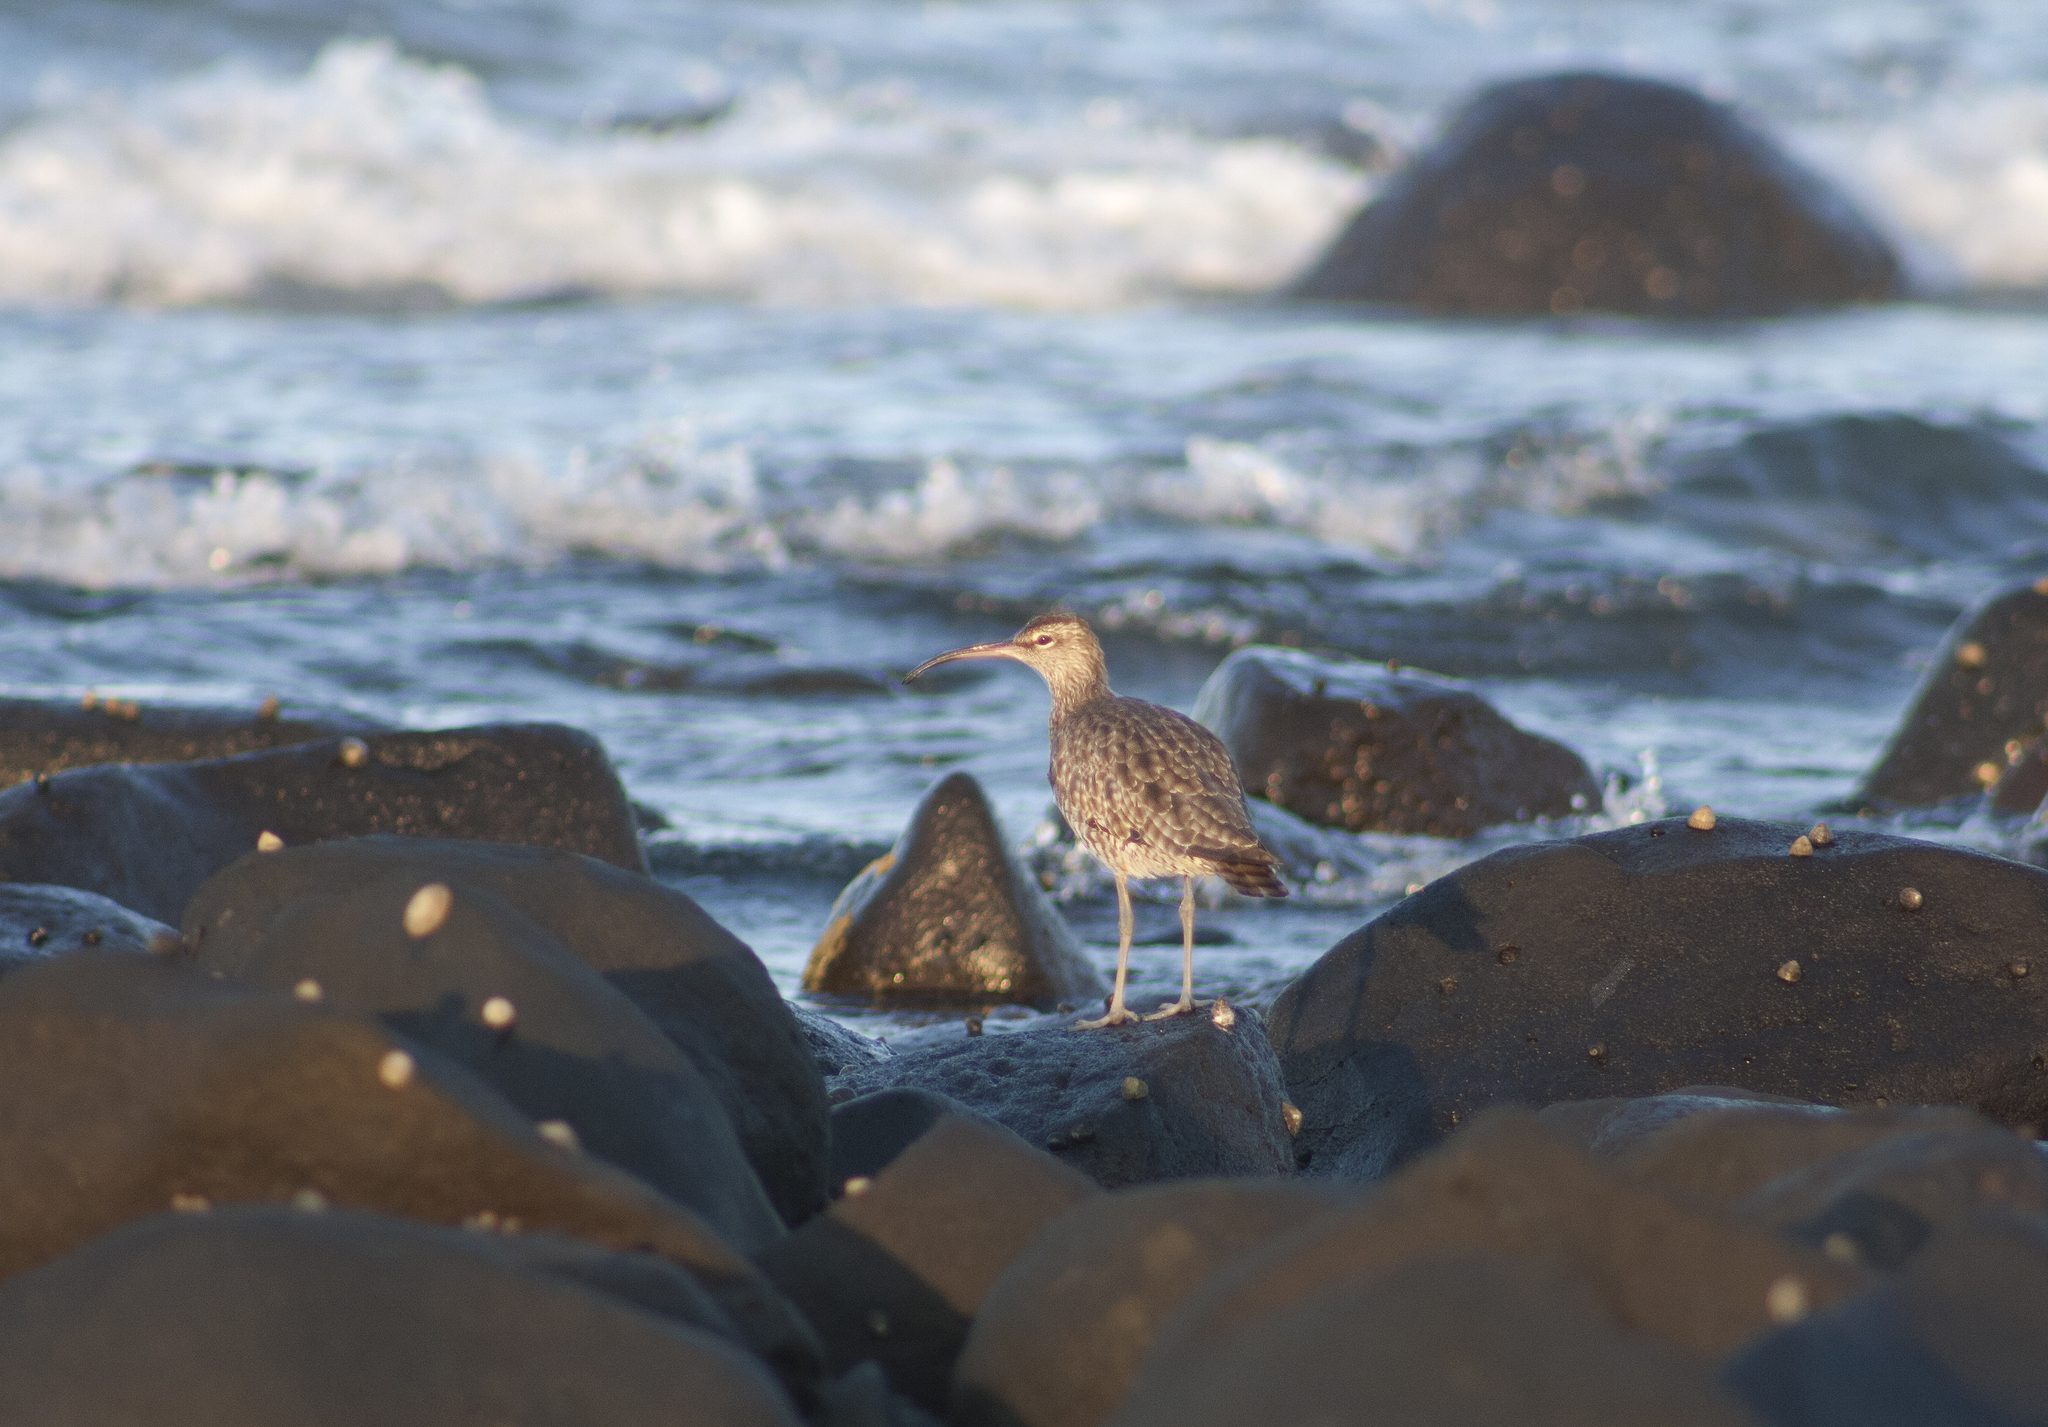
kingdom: Animalia
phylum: Chordata
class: Aves
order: Charadriiformes
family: Scolopacidae
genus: Numenius
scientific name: Numenius phaeopus
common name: Whimbrel
